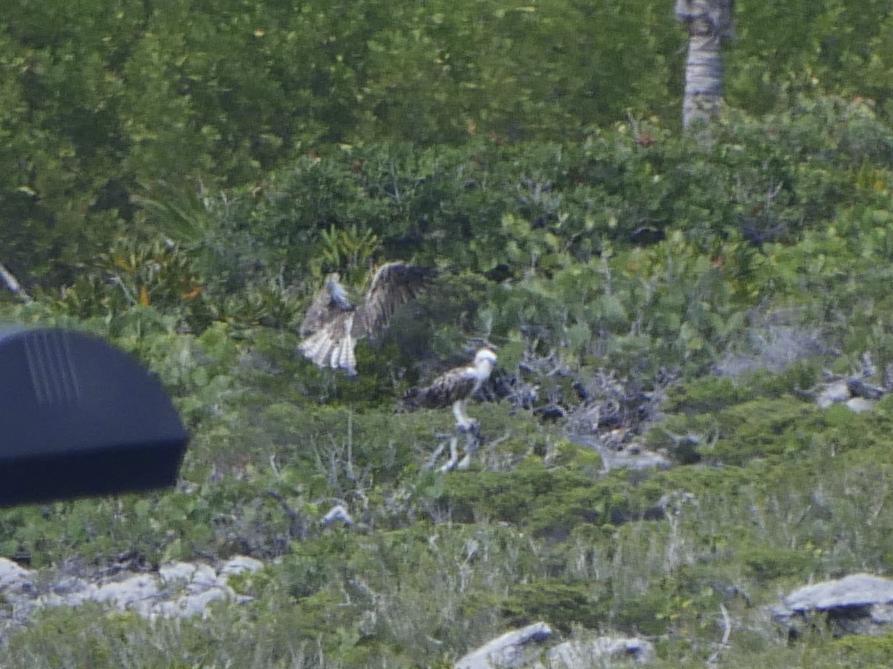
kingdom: Animalia
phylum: Chordata
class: Aves
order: Accipitriformes
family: Pandionidae
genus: Pandion
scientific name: Pandion haliaetus
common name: Osprey
